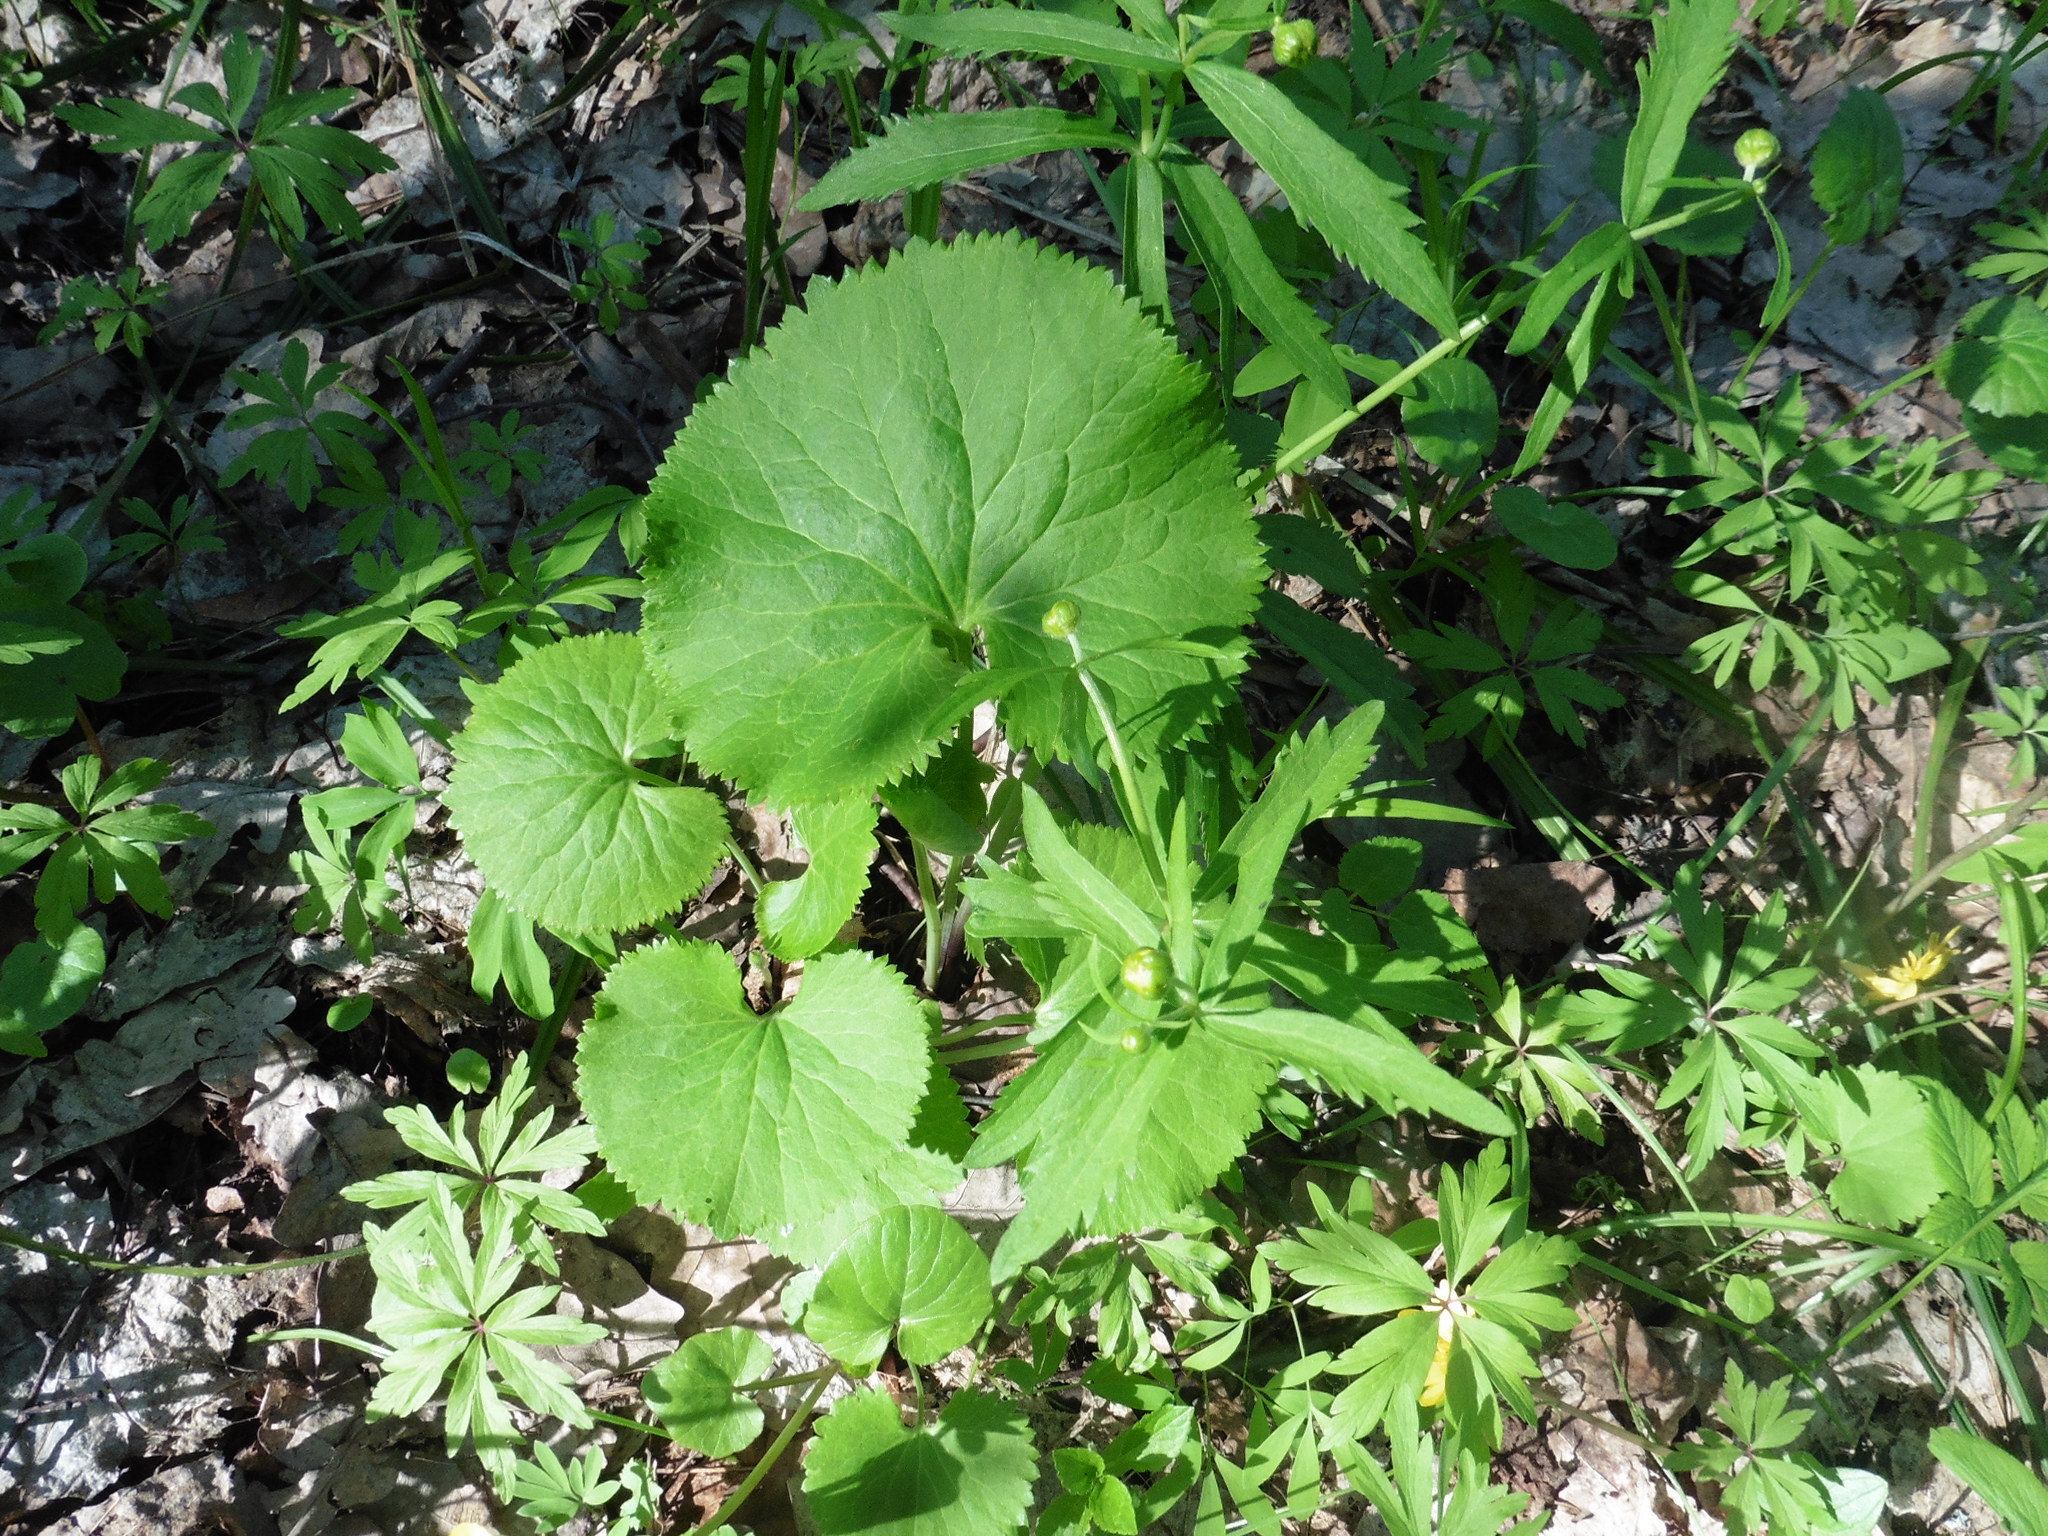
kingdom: Plantae
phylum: Tracheophyta
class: Magnoliopsida
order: Ranunculales
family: Ranunculaceae
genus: Ranunculus
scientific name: Ranunculus cassubicus
